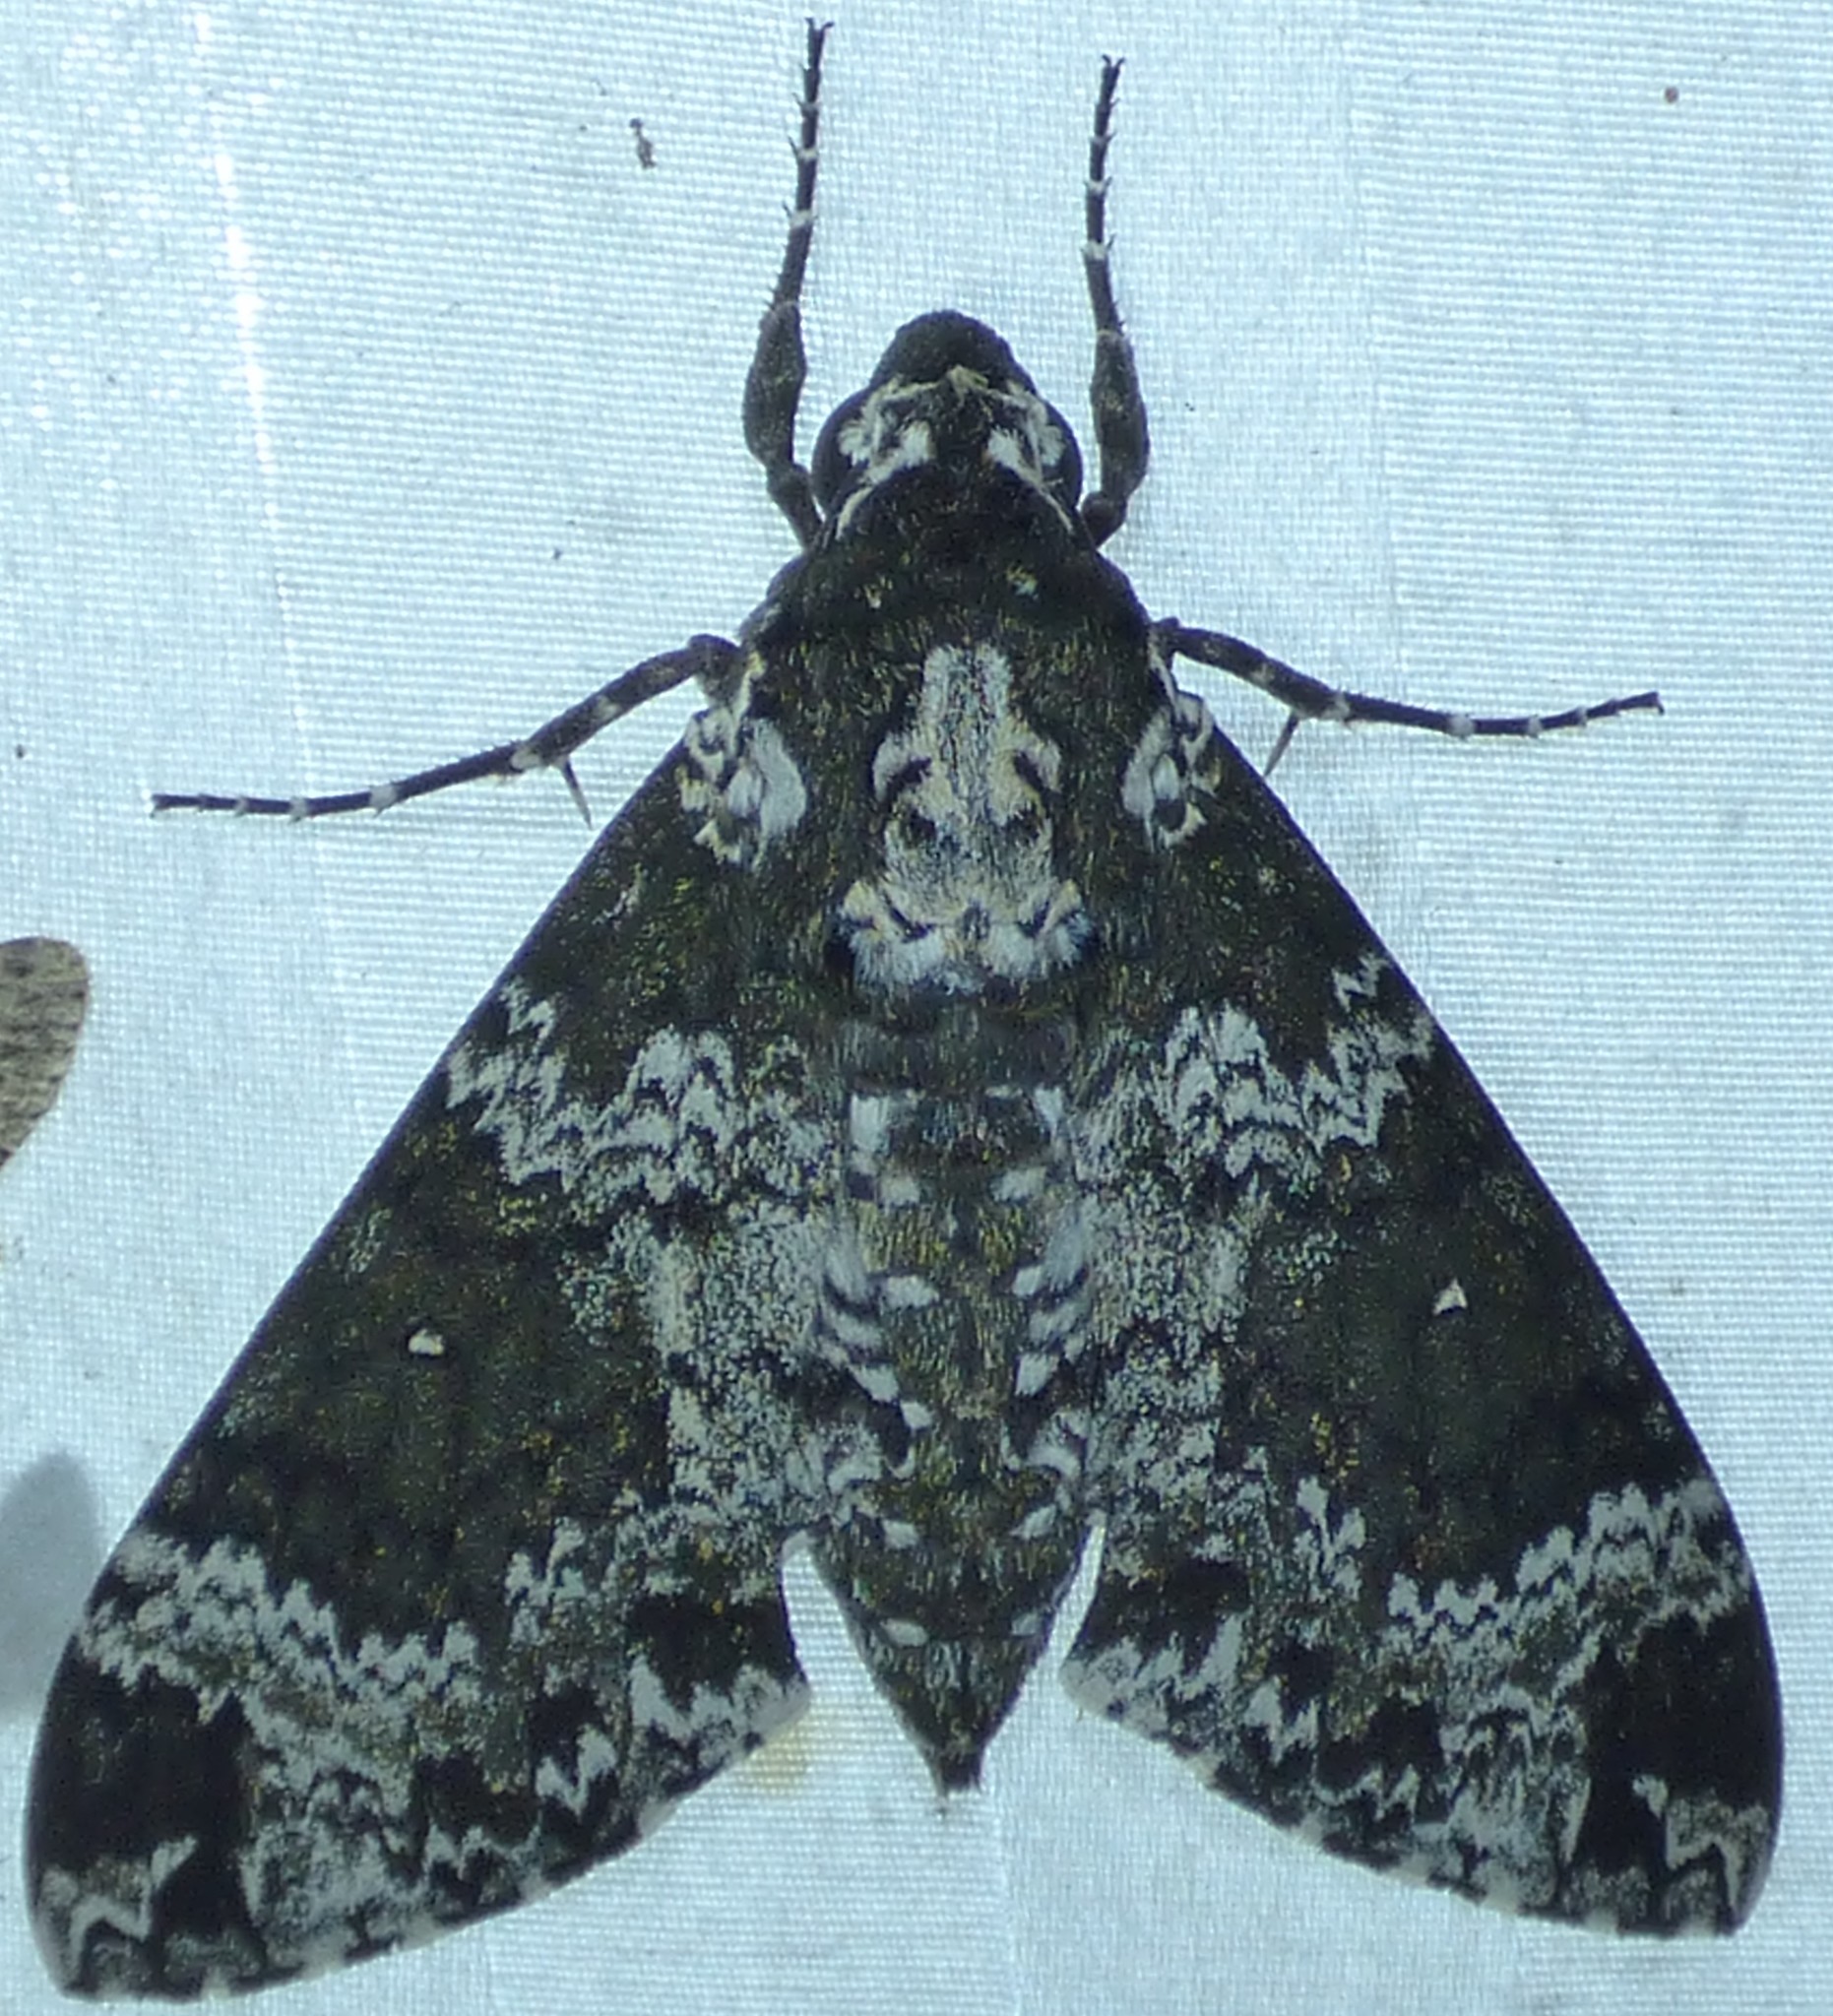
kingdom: Animalia
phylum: Arthropoda
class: Insecta
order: Lepidoptera
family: Sphingidae
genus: Manduca
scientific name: Manduca rustica
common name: Rustic sphinx
